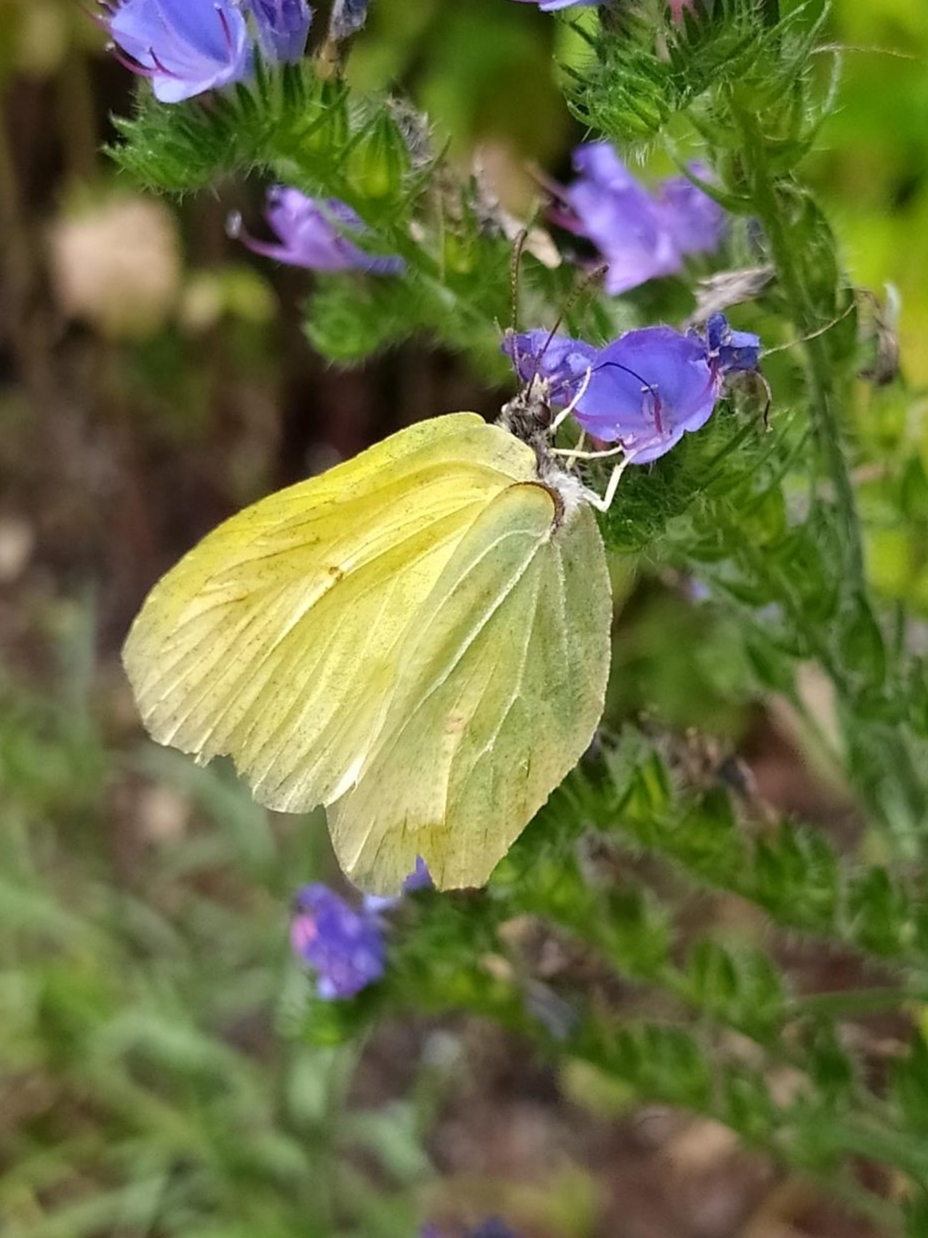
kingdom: Animalia
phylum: Arthropoda
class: Insecta
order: Lepidoptera
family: Pieridae
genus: Gonepteryx
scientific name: Gonepteryx rhamni
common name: Brimstone
